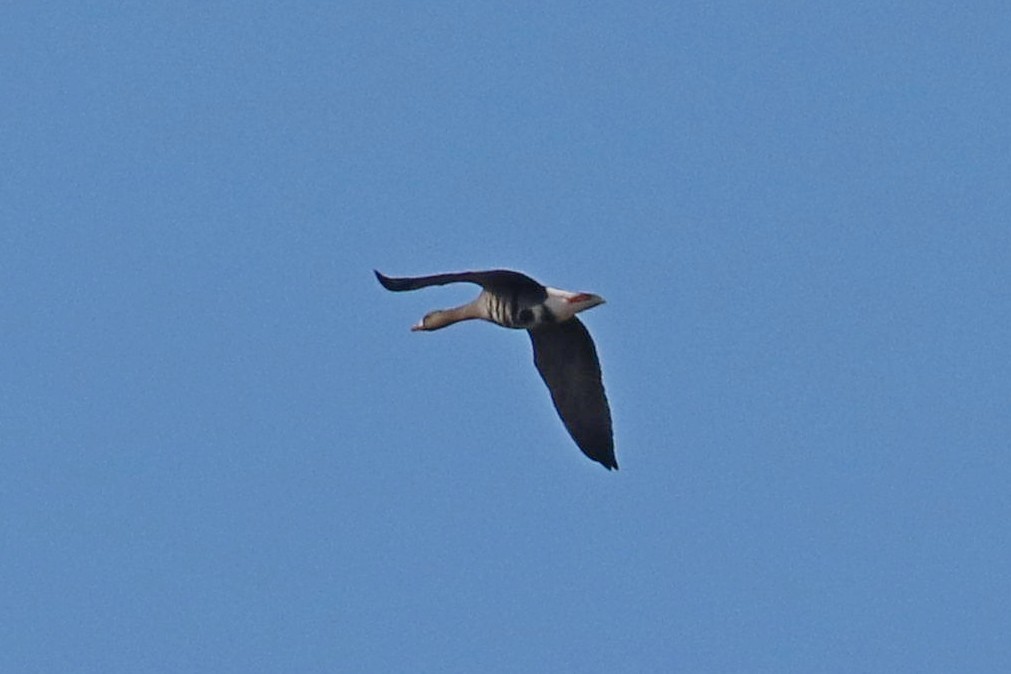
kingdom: Animalia
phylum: Chordata
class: Aves
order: Anseriformes
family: Anatidae
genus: Anser
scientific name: Anser albifrons
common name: Greater white-fronted goose
